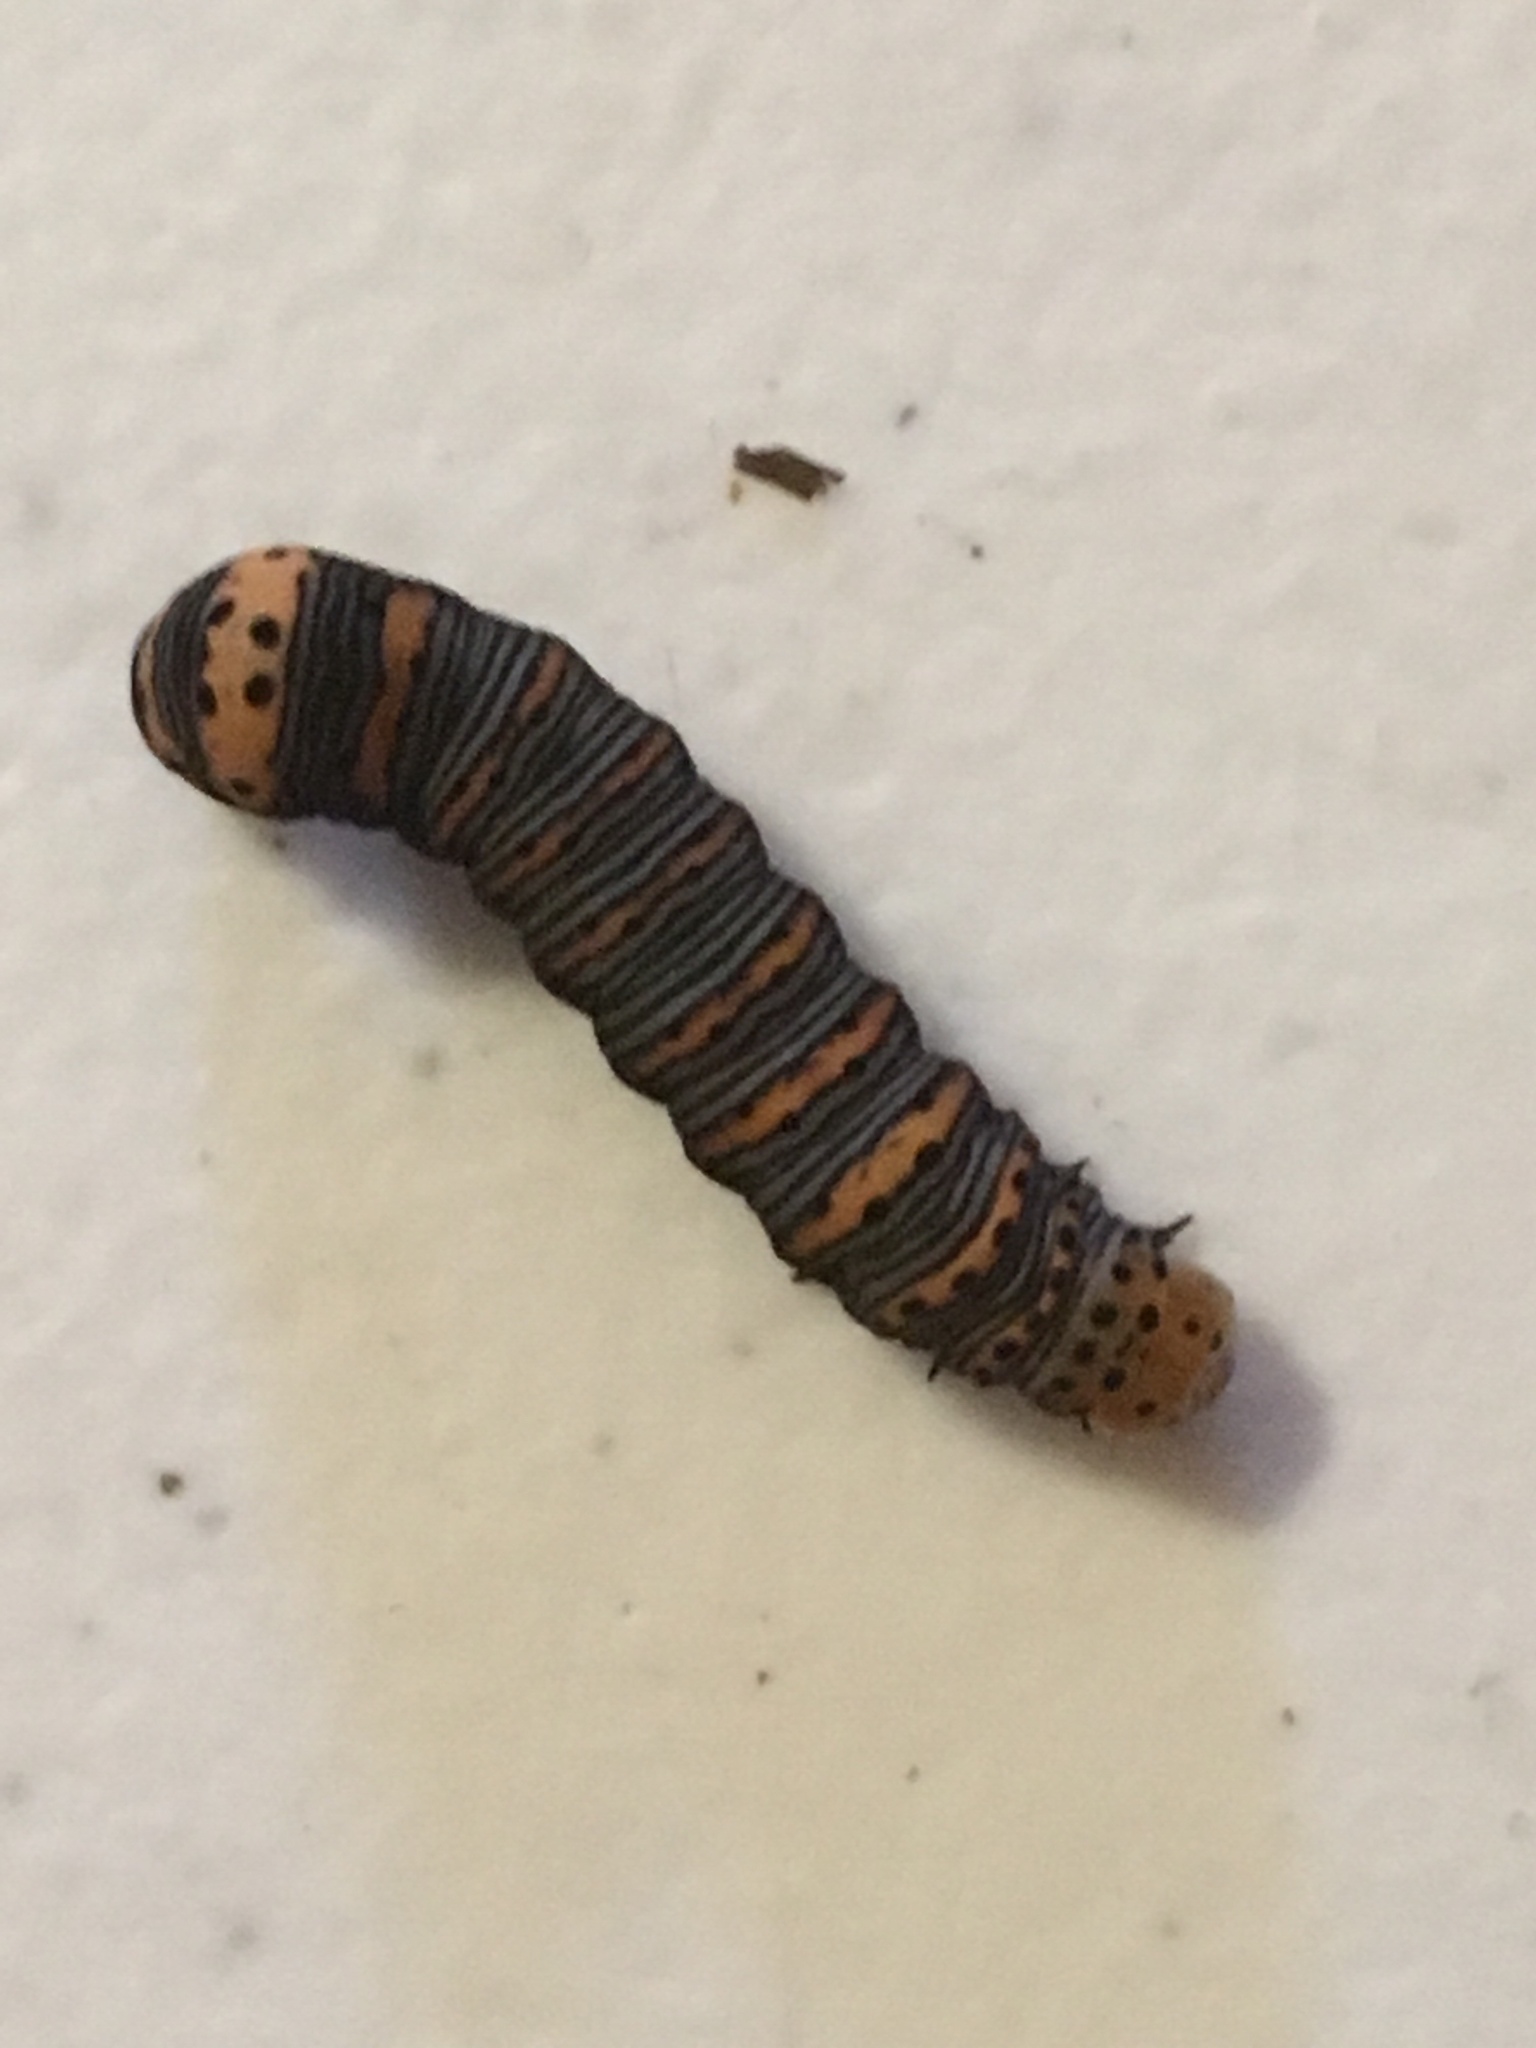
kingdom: Animalia
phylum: Arthropoda
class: Insecta
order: Lepidoptera
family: Noctuidae
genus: Eudryas
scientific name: Eudryas grata
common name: Beautiful wood-nymph
